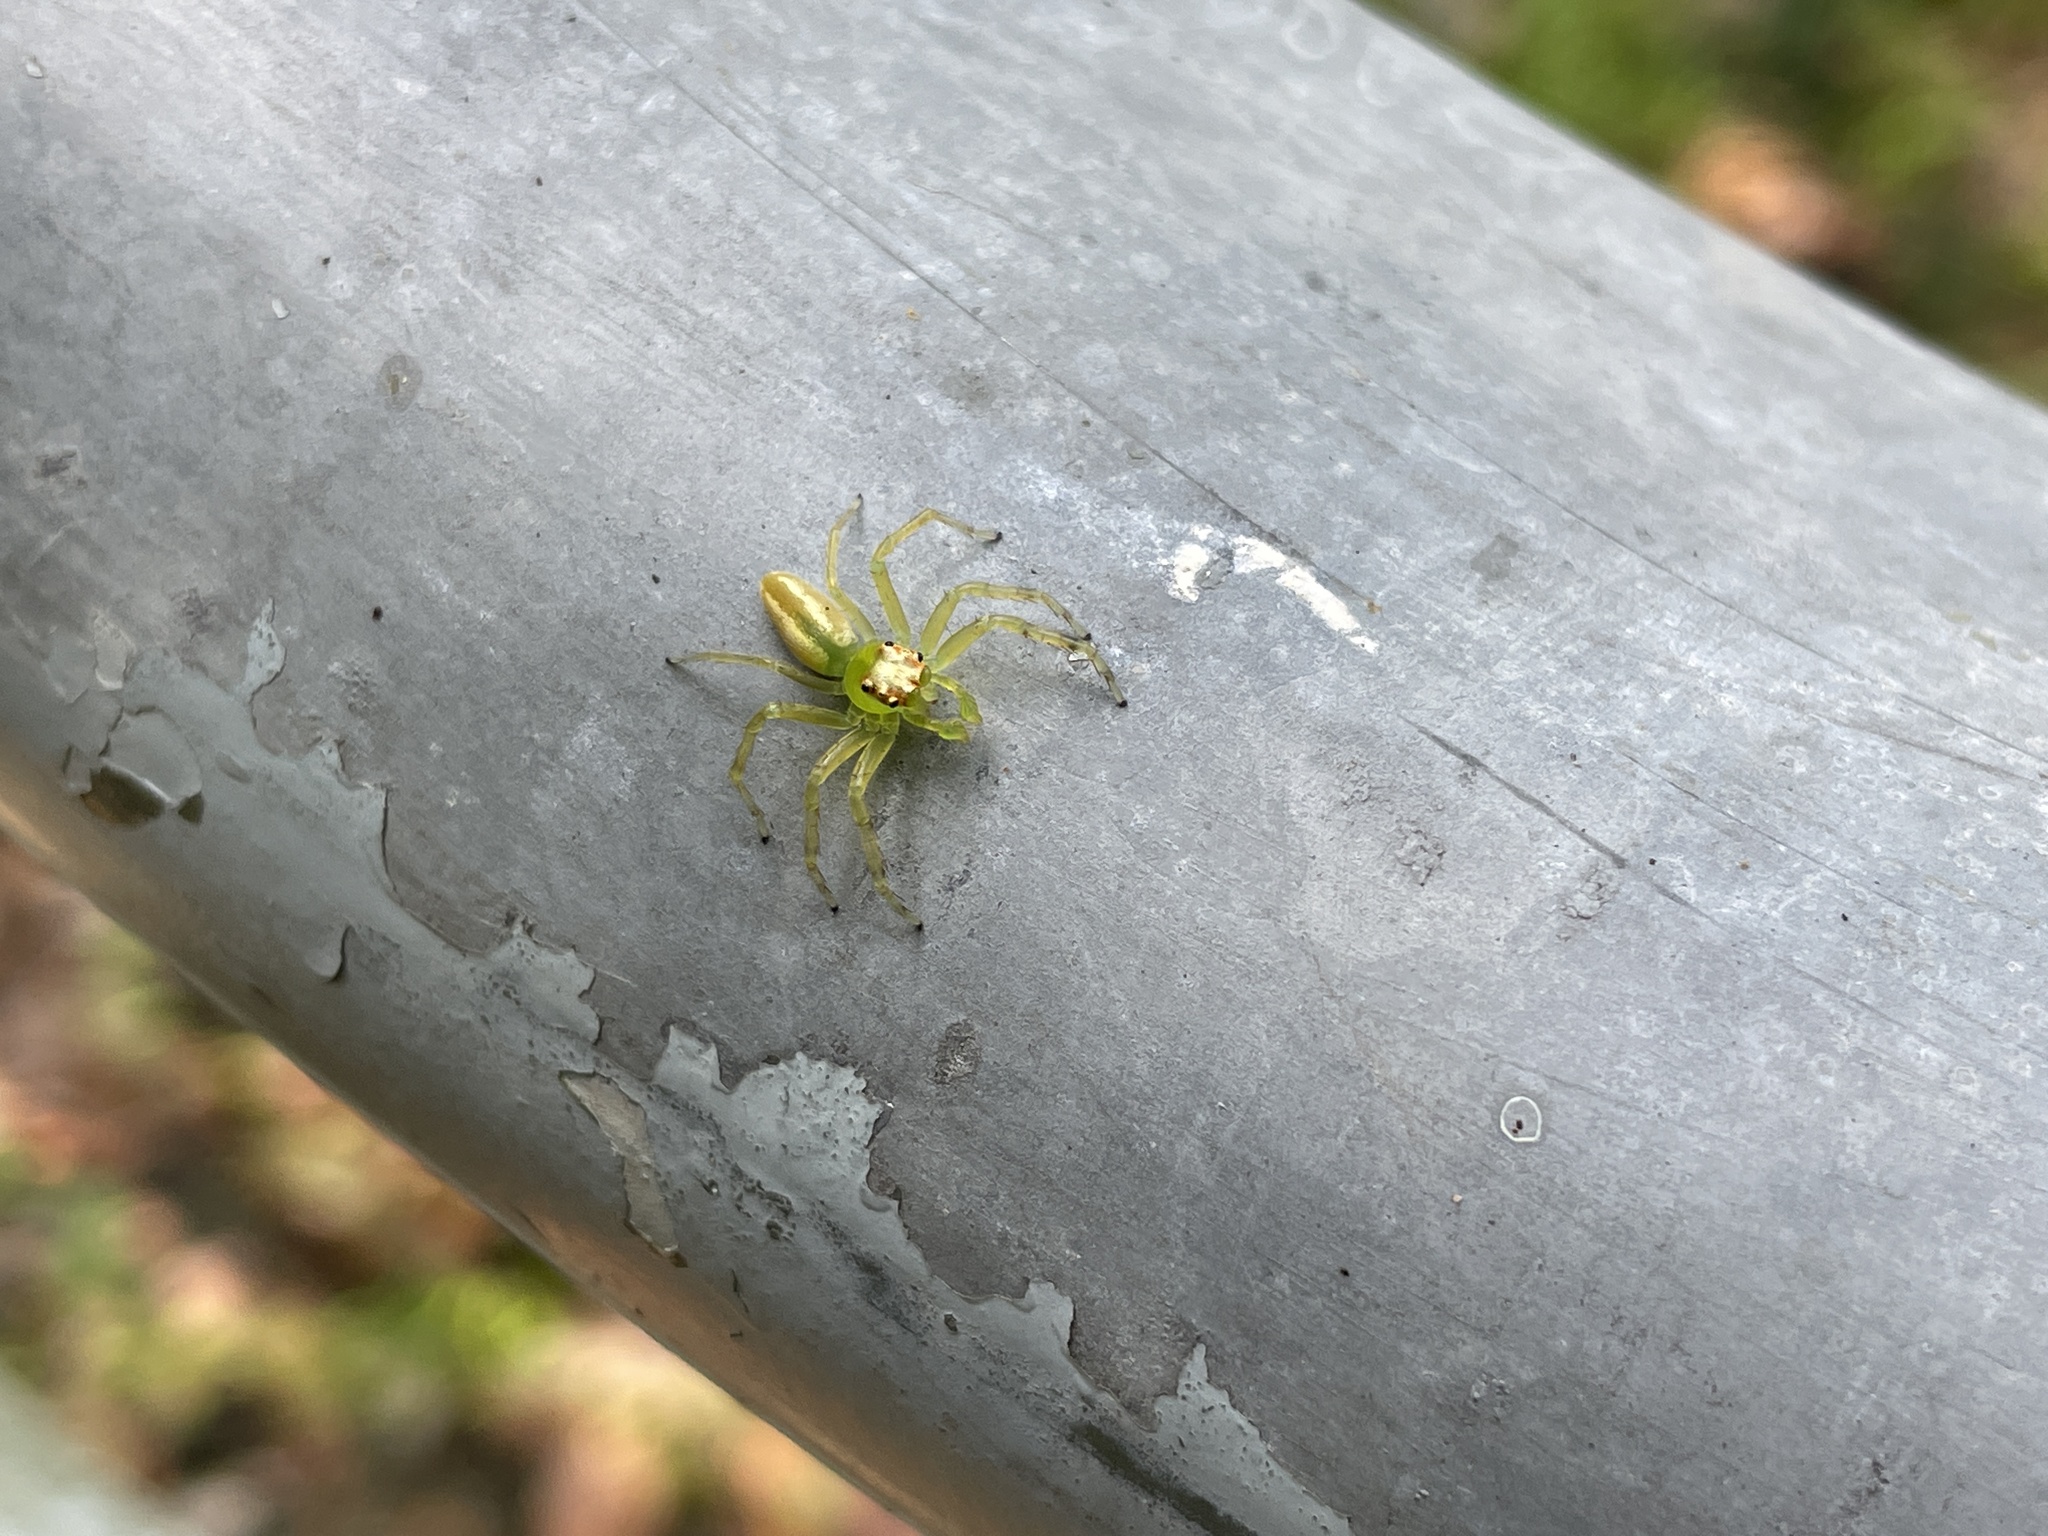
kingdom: Animalia
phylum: Arthropoda
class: Arachnida
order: Araneae
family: Salticidae
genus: Epeus
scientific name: Epeus glorius
